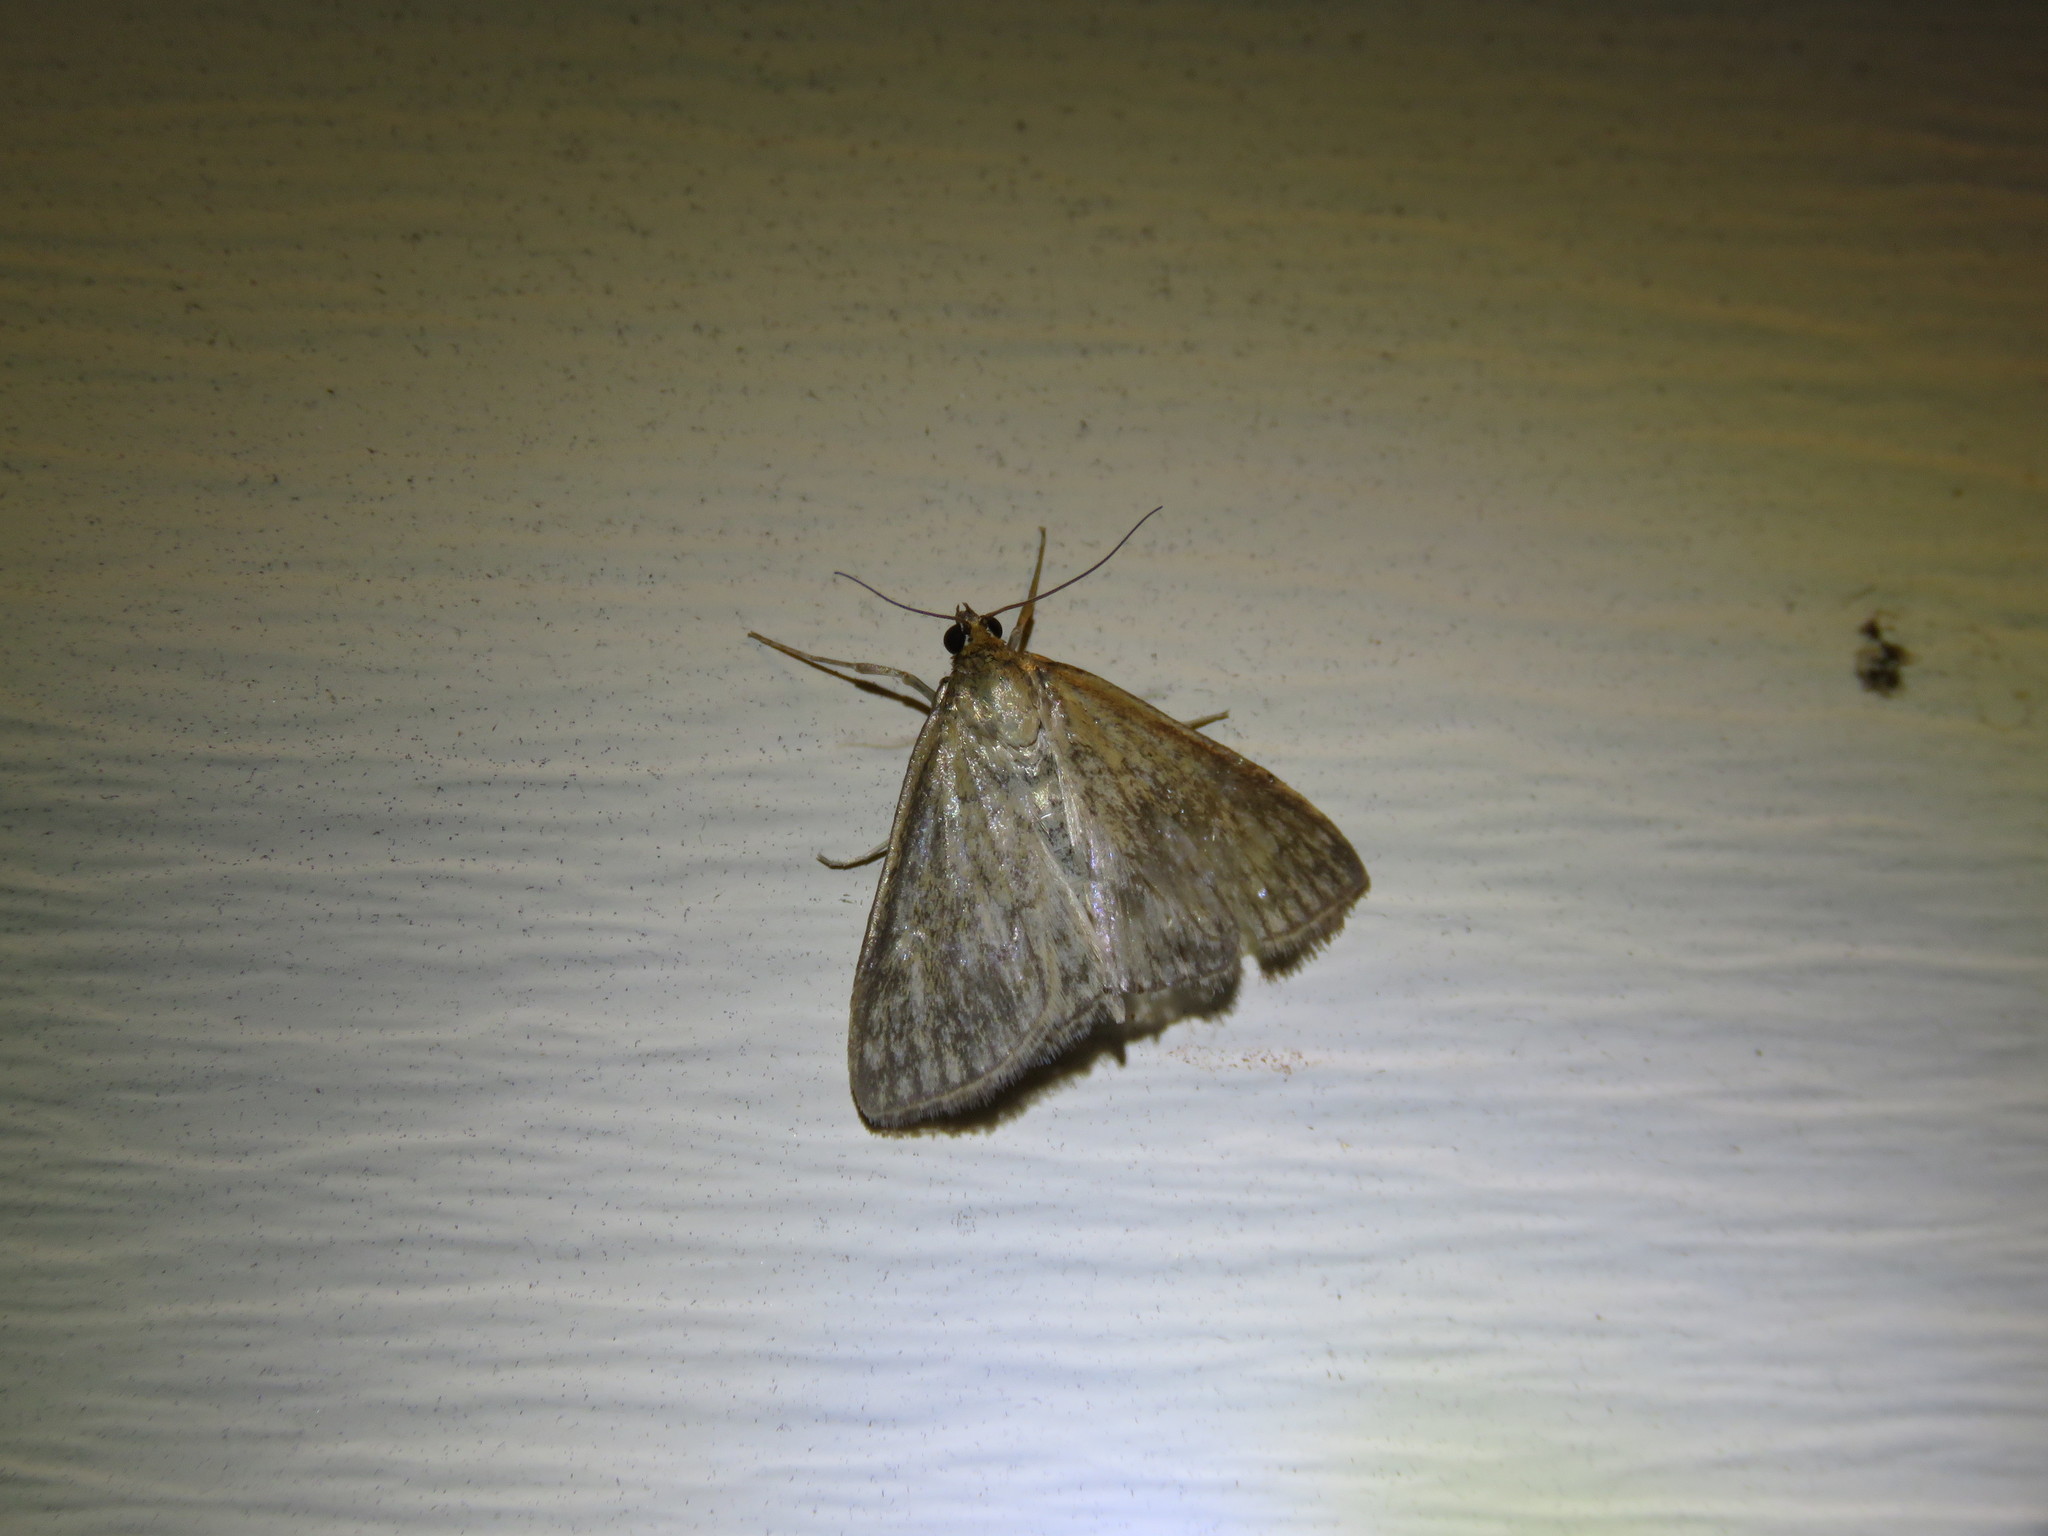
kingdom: Animalia
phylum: Arthropoda
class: Insecta
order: Lepidoptera
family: Crambidae
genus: Sitochroa
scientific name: Sitochroa chortalis
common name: Dimorphic sitochroa moth
